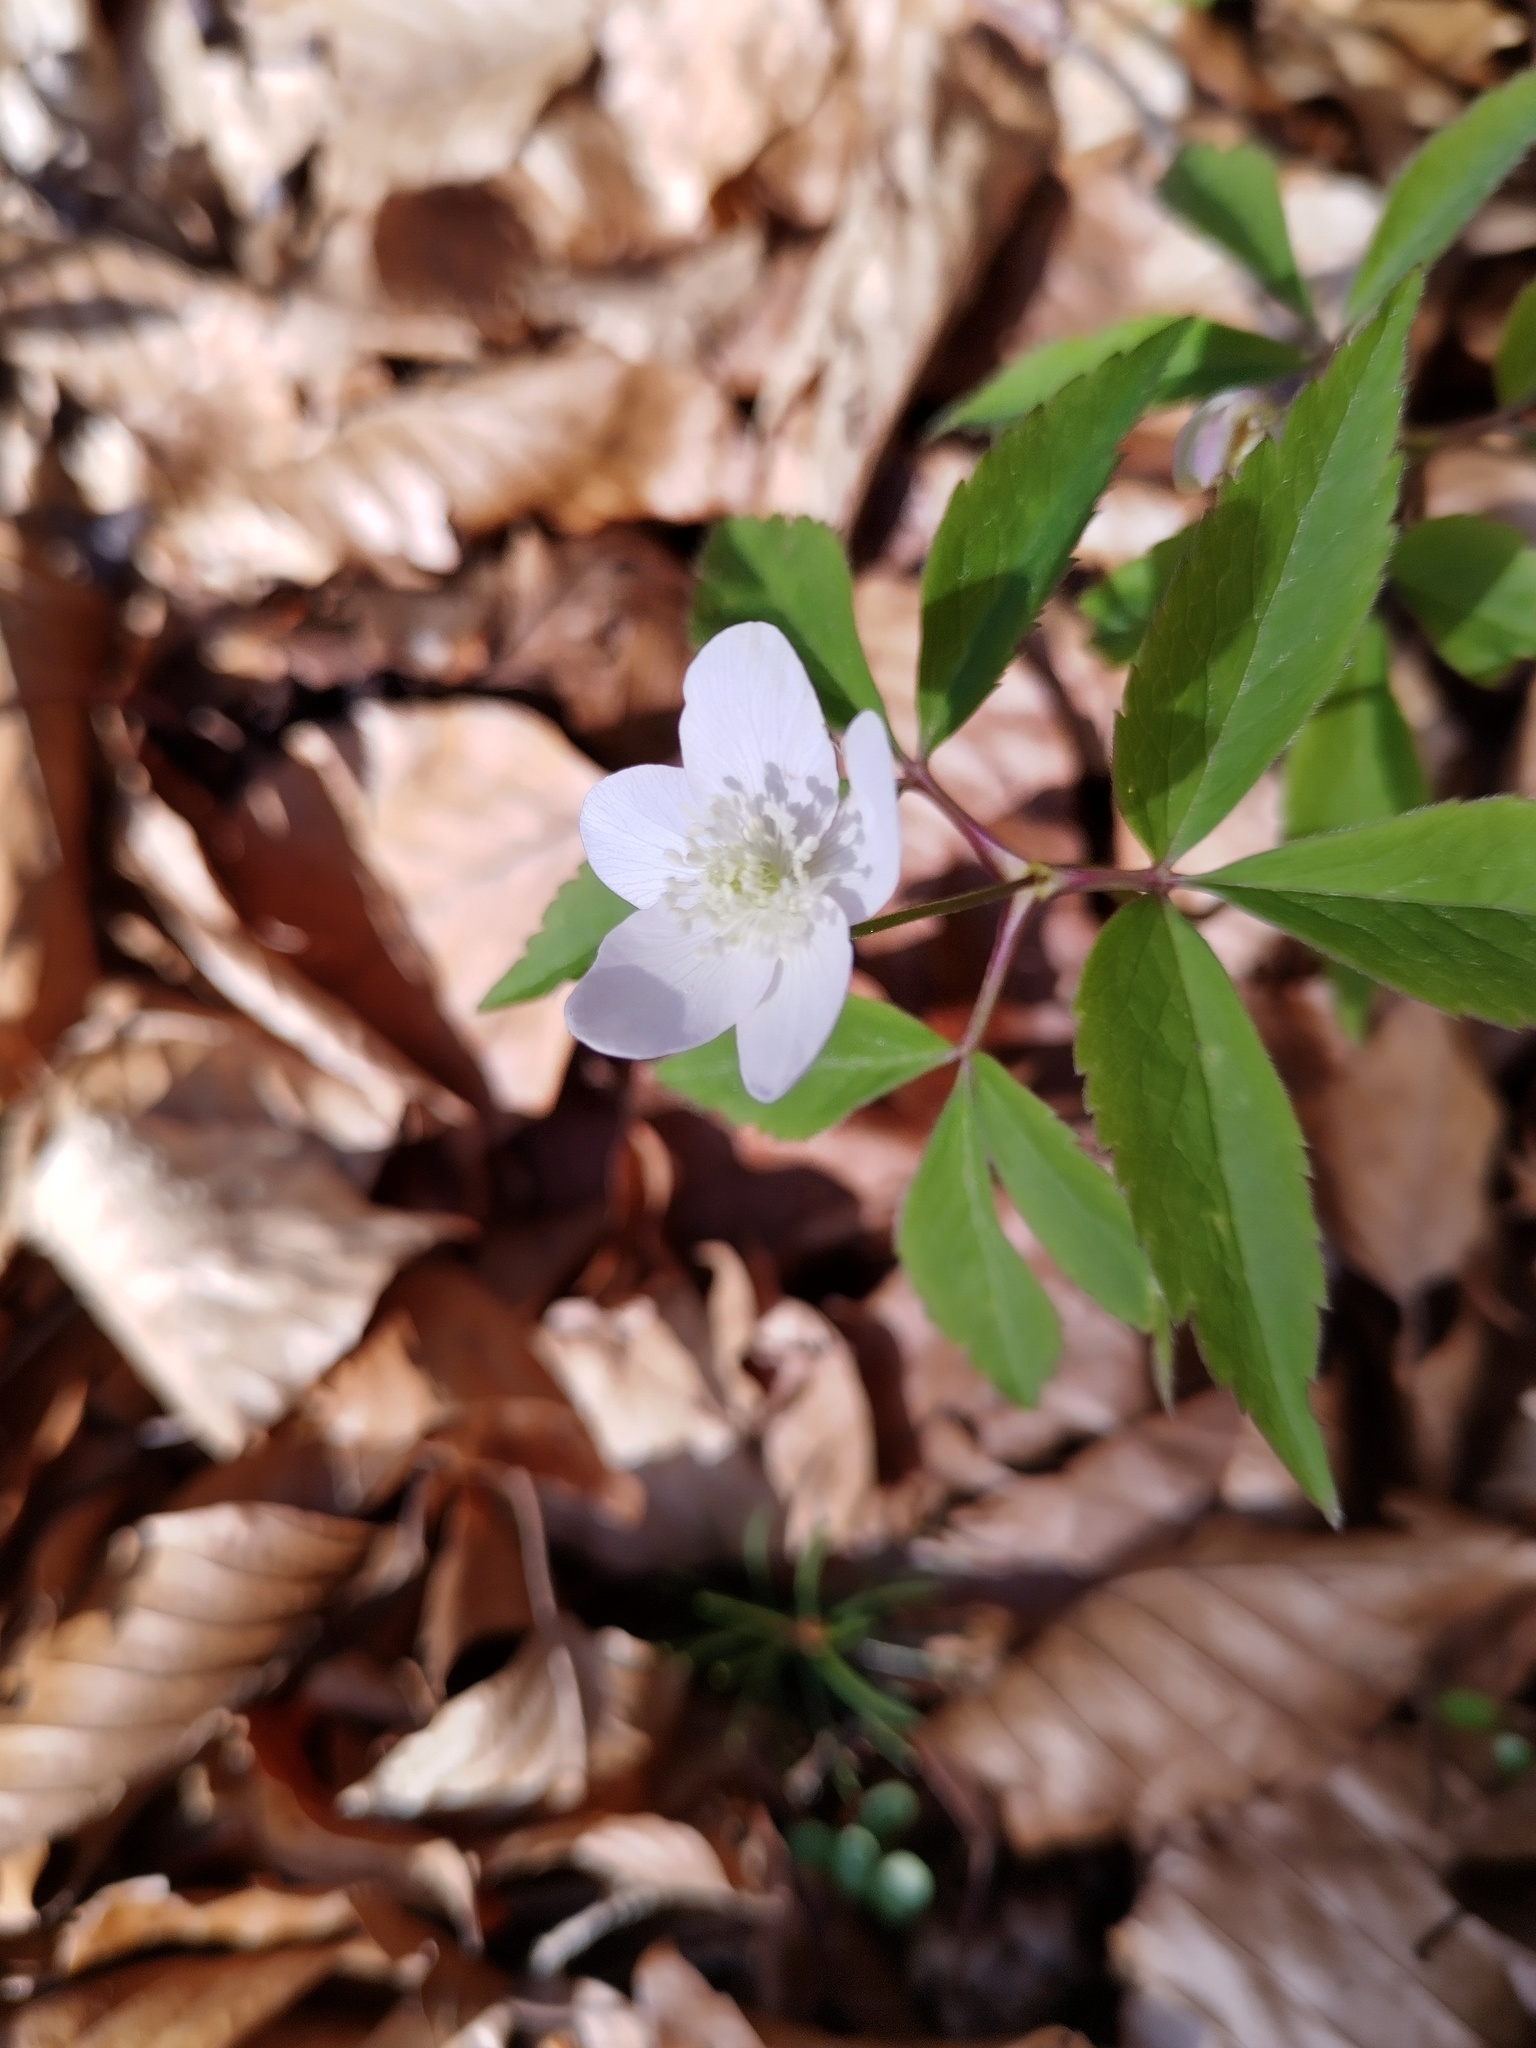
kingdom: Plantae
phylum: Tracheophyta
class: Magnoliopsida
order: Ranunculales
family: Ranunculaceae
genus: Anemone
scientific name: Anemone trifolia
